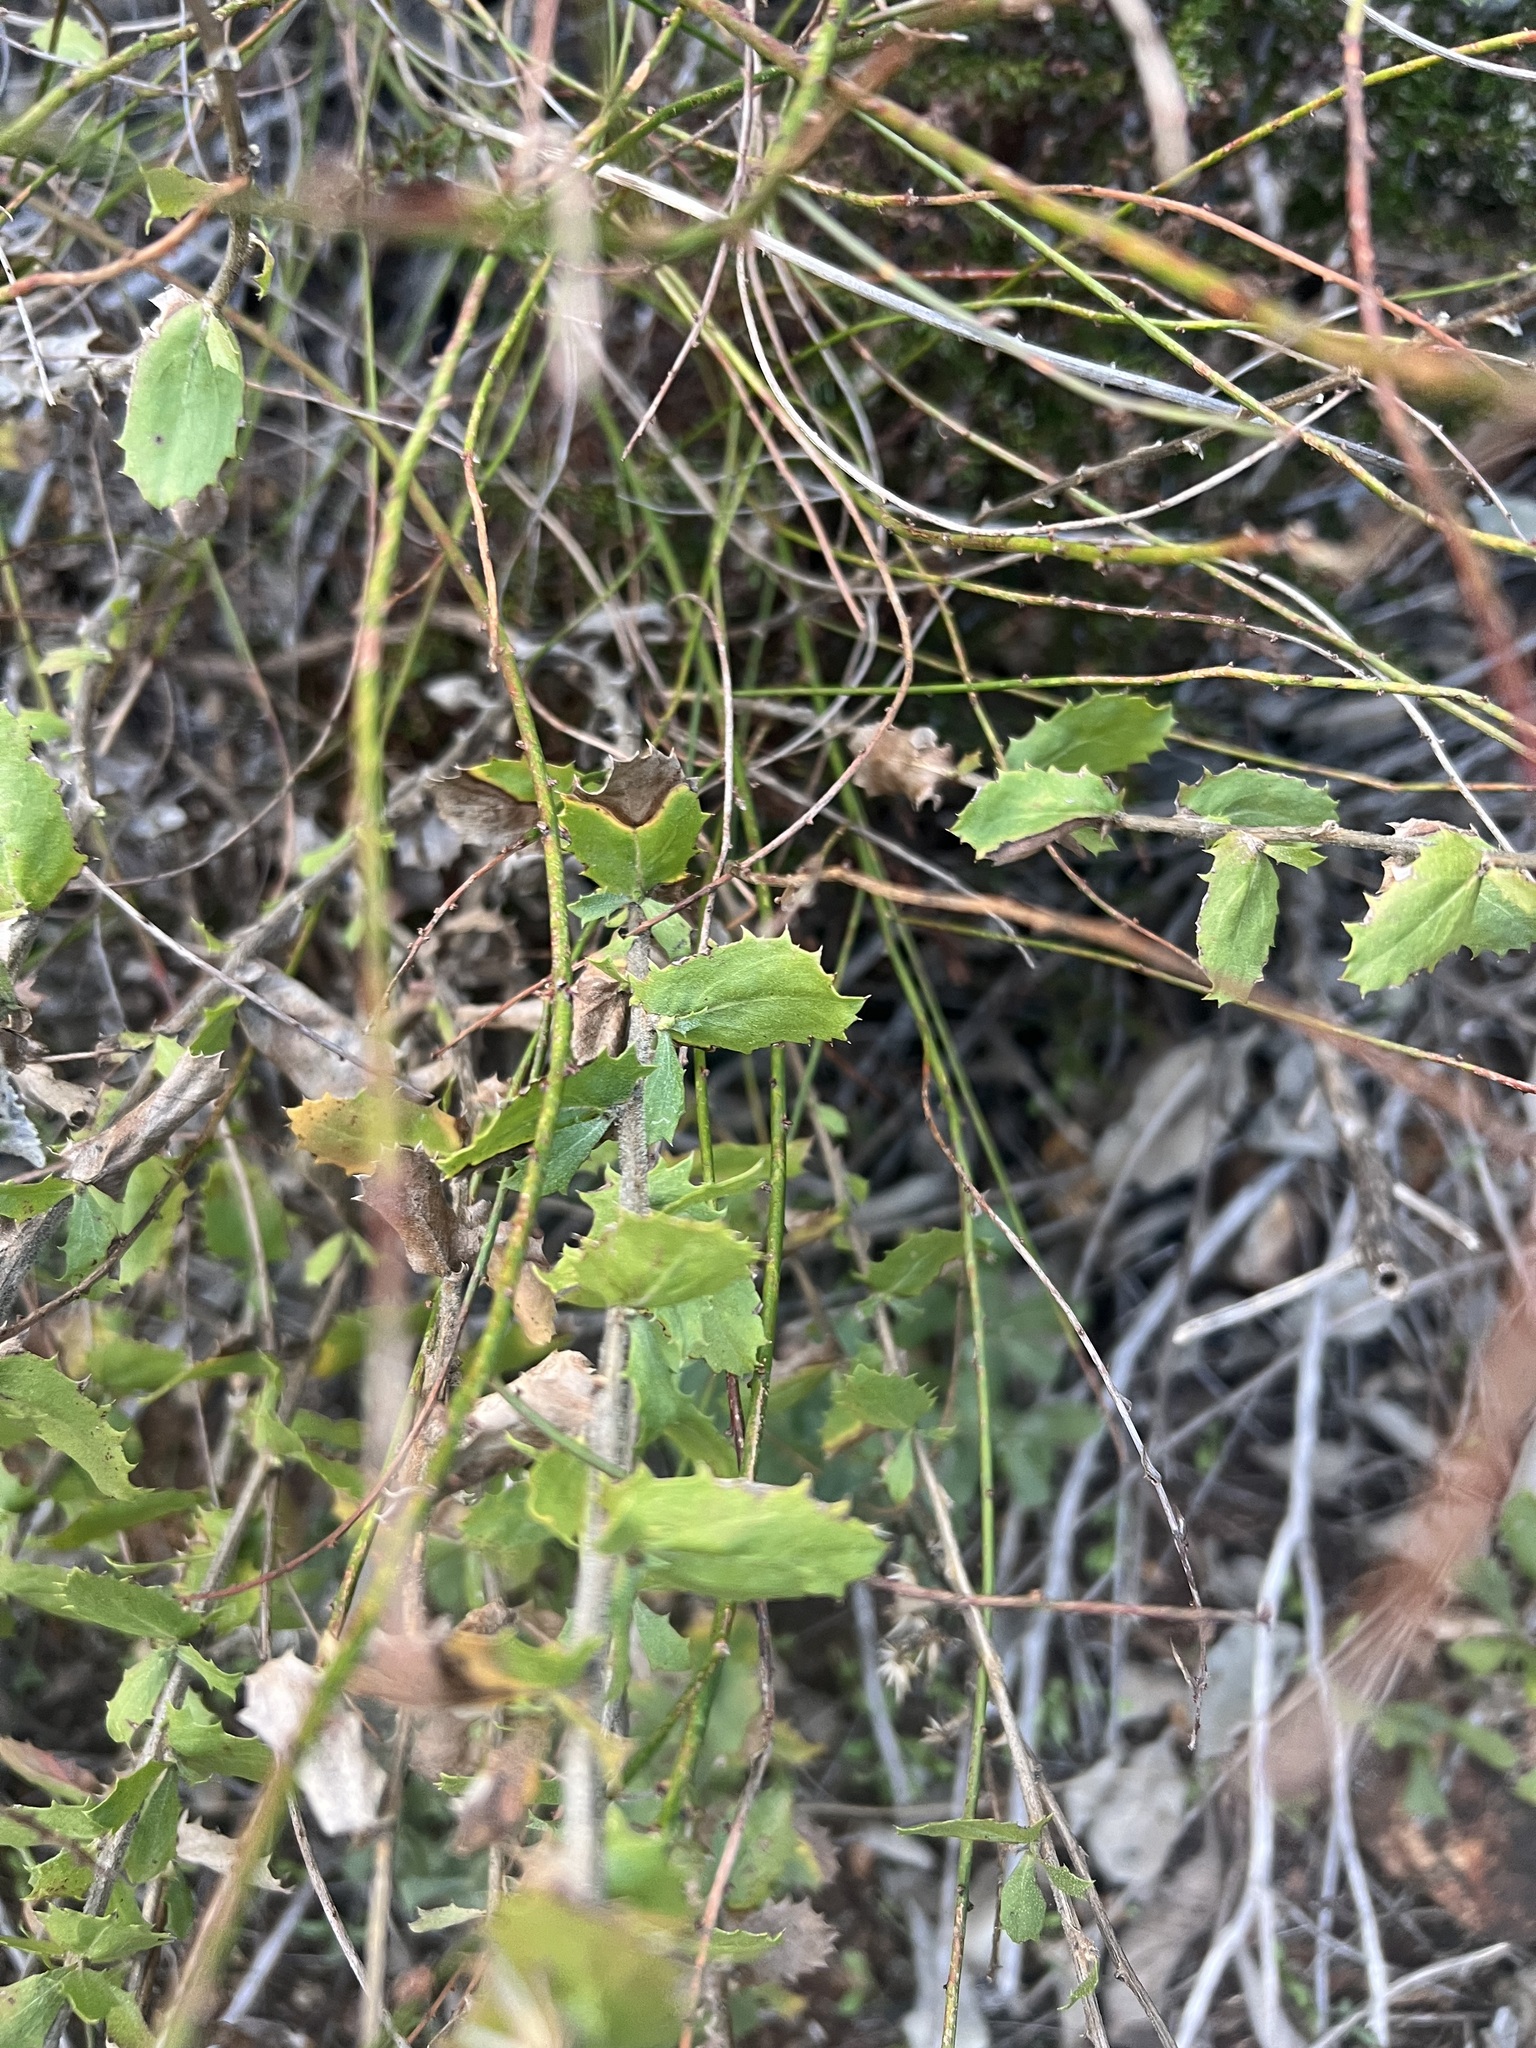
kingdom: Plantae
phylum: Tracheophyta
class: Magnoliopsida
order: Asterales
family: Asteraceae
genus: Hazardia
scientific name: Hazardia squarrosa
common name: Saw-tooth goldenbush
